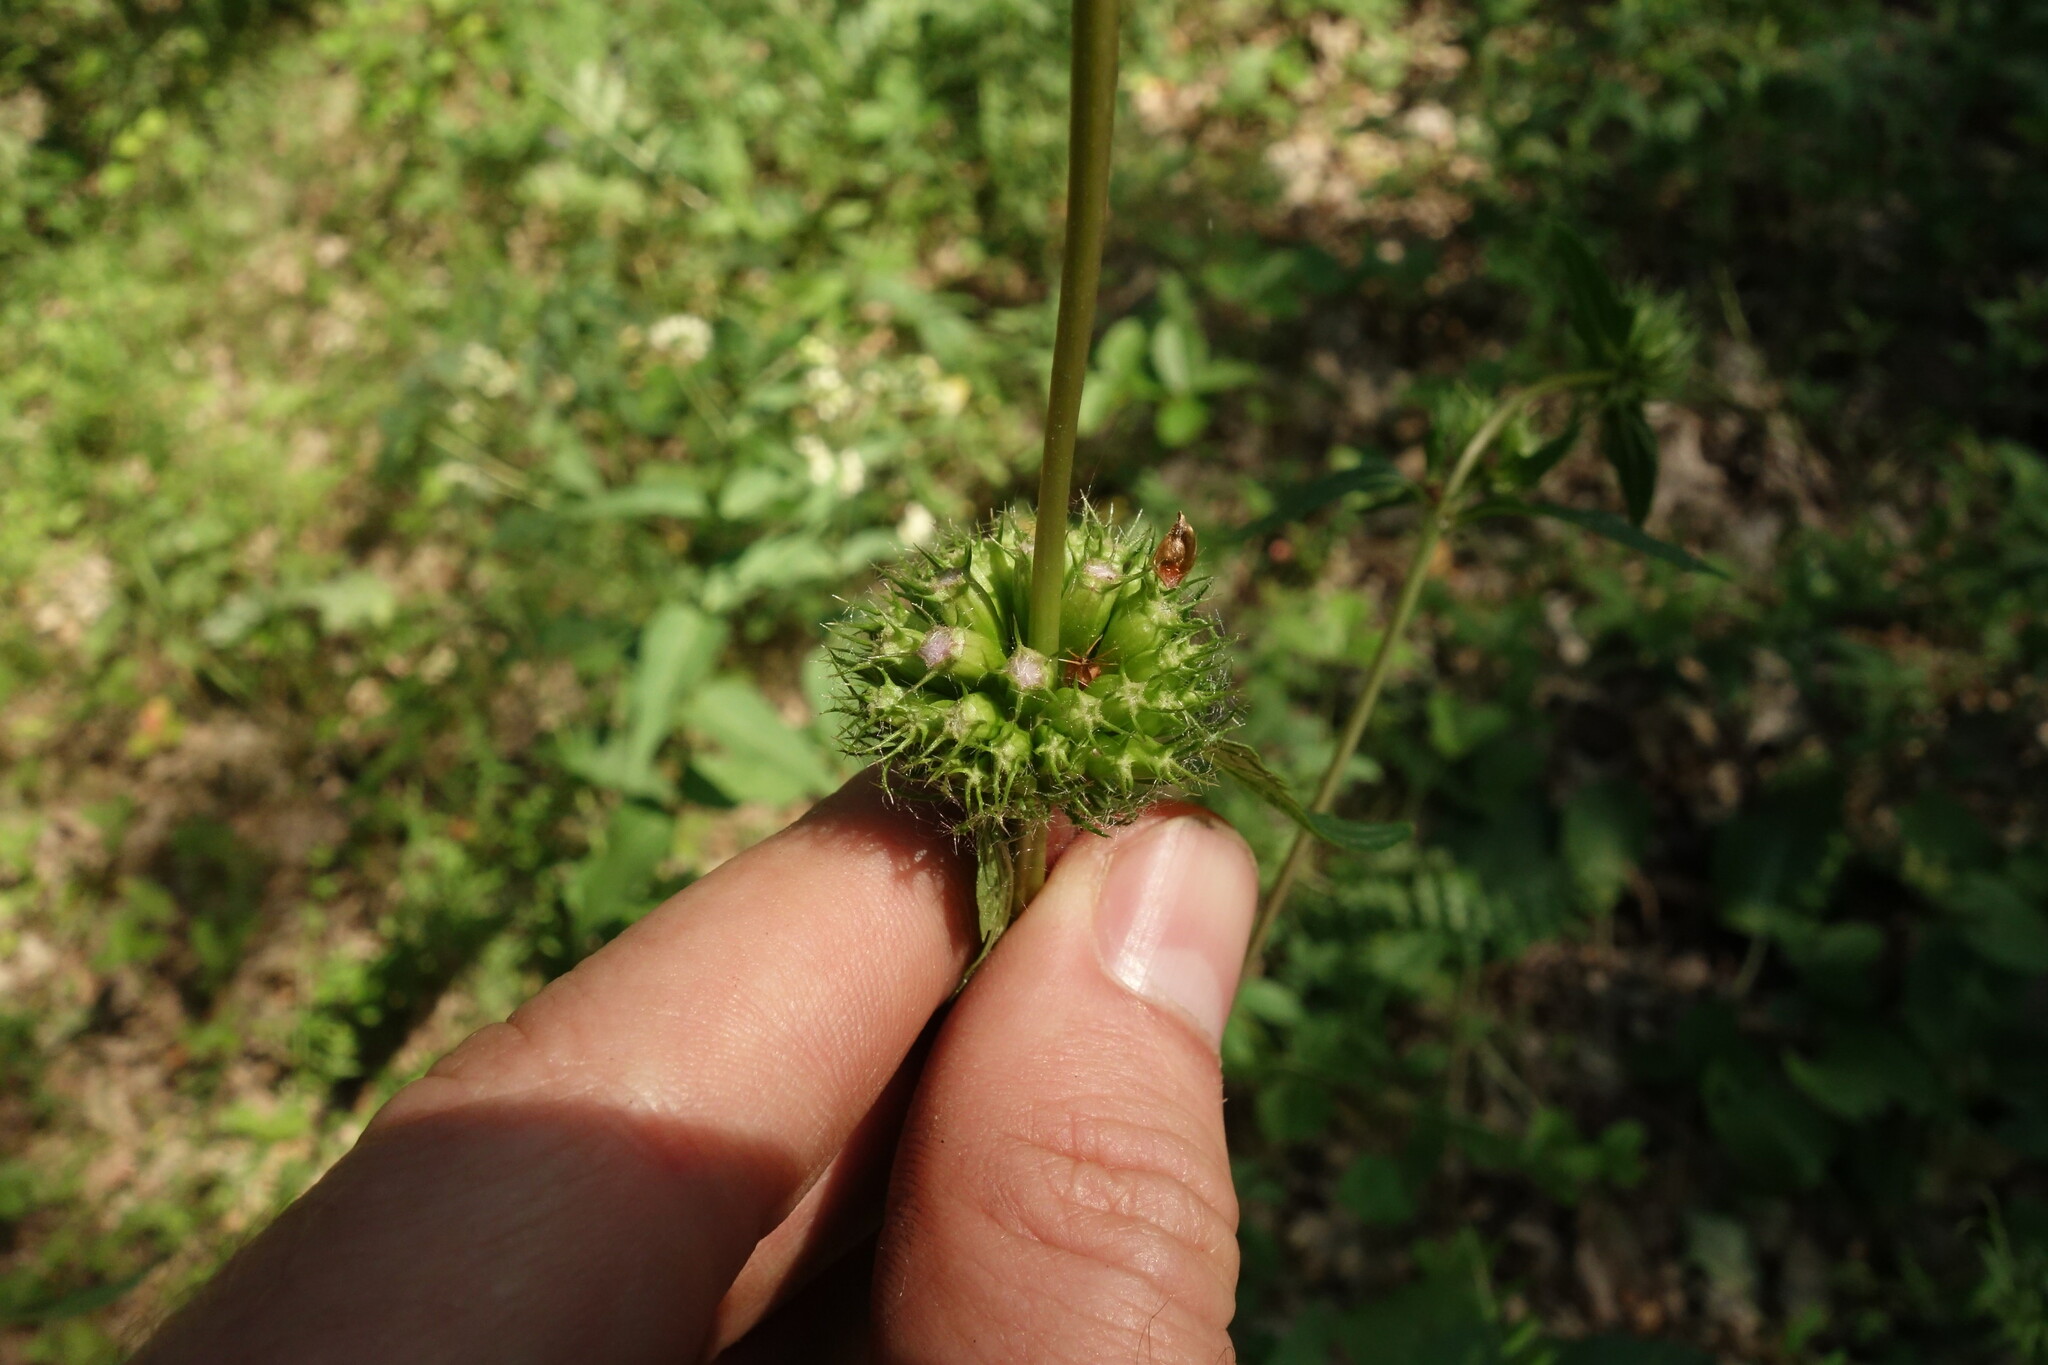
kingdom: Plantae
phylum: Tracheophyta
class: Magnoliopsida
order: Lamiales
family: Lamiaceae
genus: Phlomoides
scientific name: Phlomoides tuberosa
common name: Tuberous jerusalem sage
